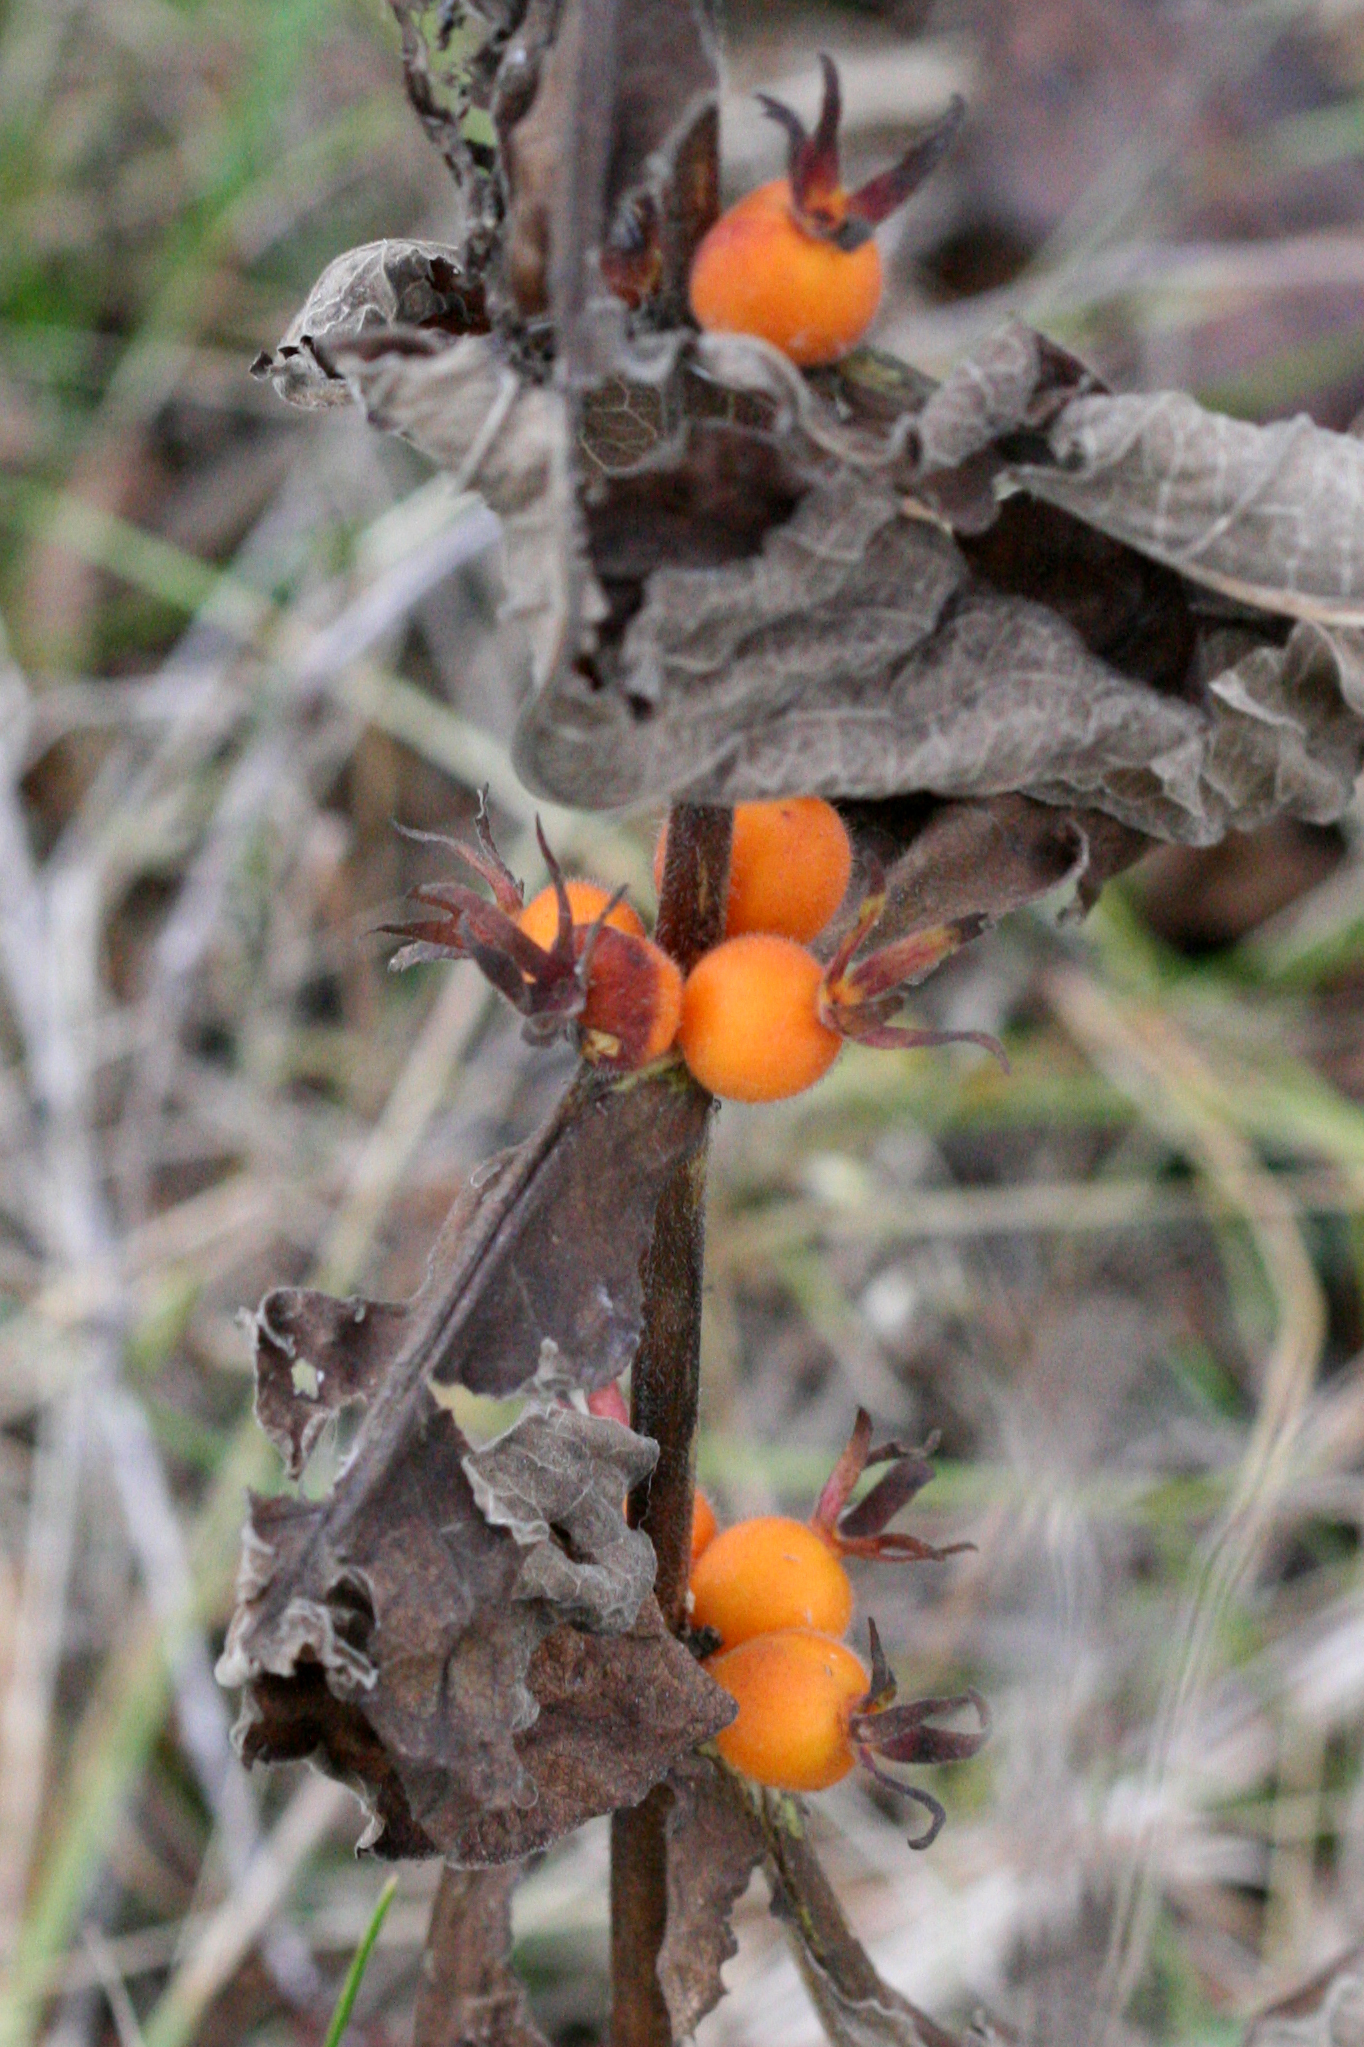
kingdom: Plantae
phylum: Tracheophyta
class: Magnoliopsida
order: Dipsacales
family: Caprifoliaceae
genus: Triosteum
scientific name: Triosteum aurantiacum
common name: Coffee tinker's-weed
